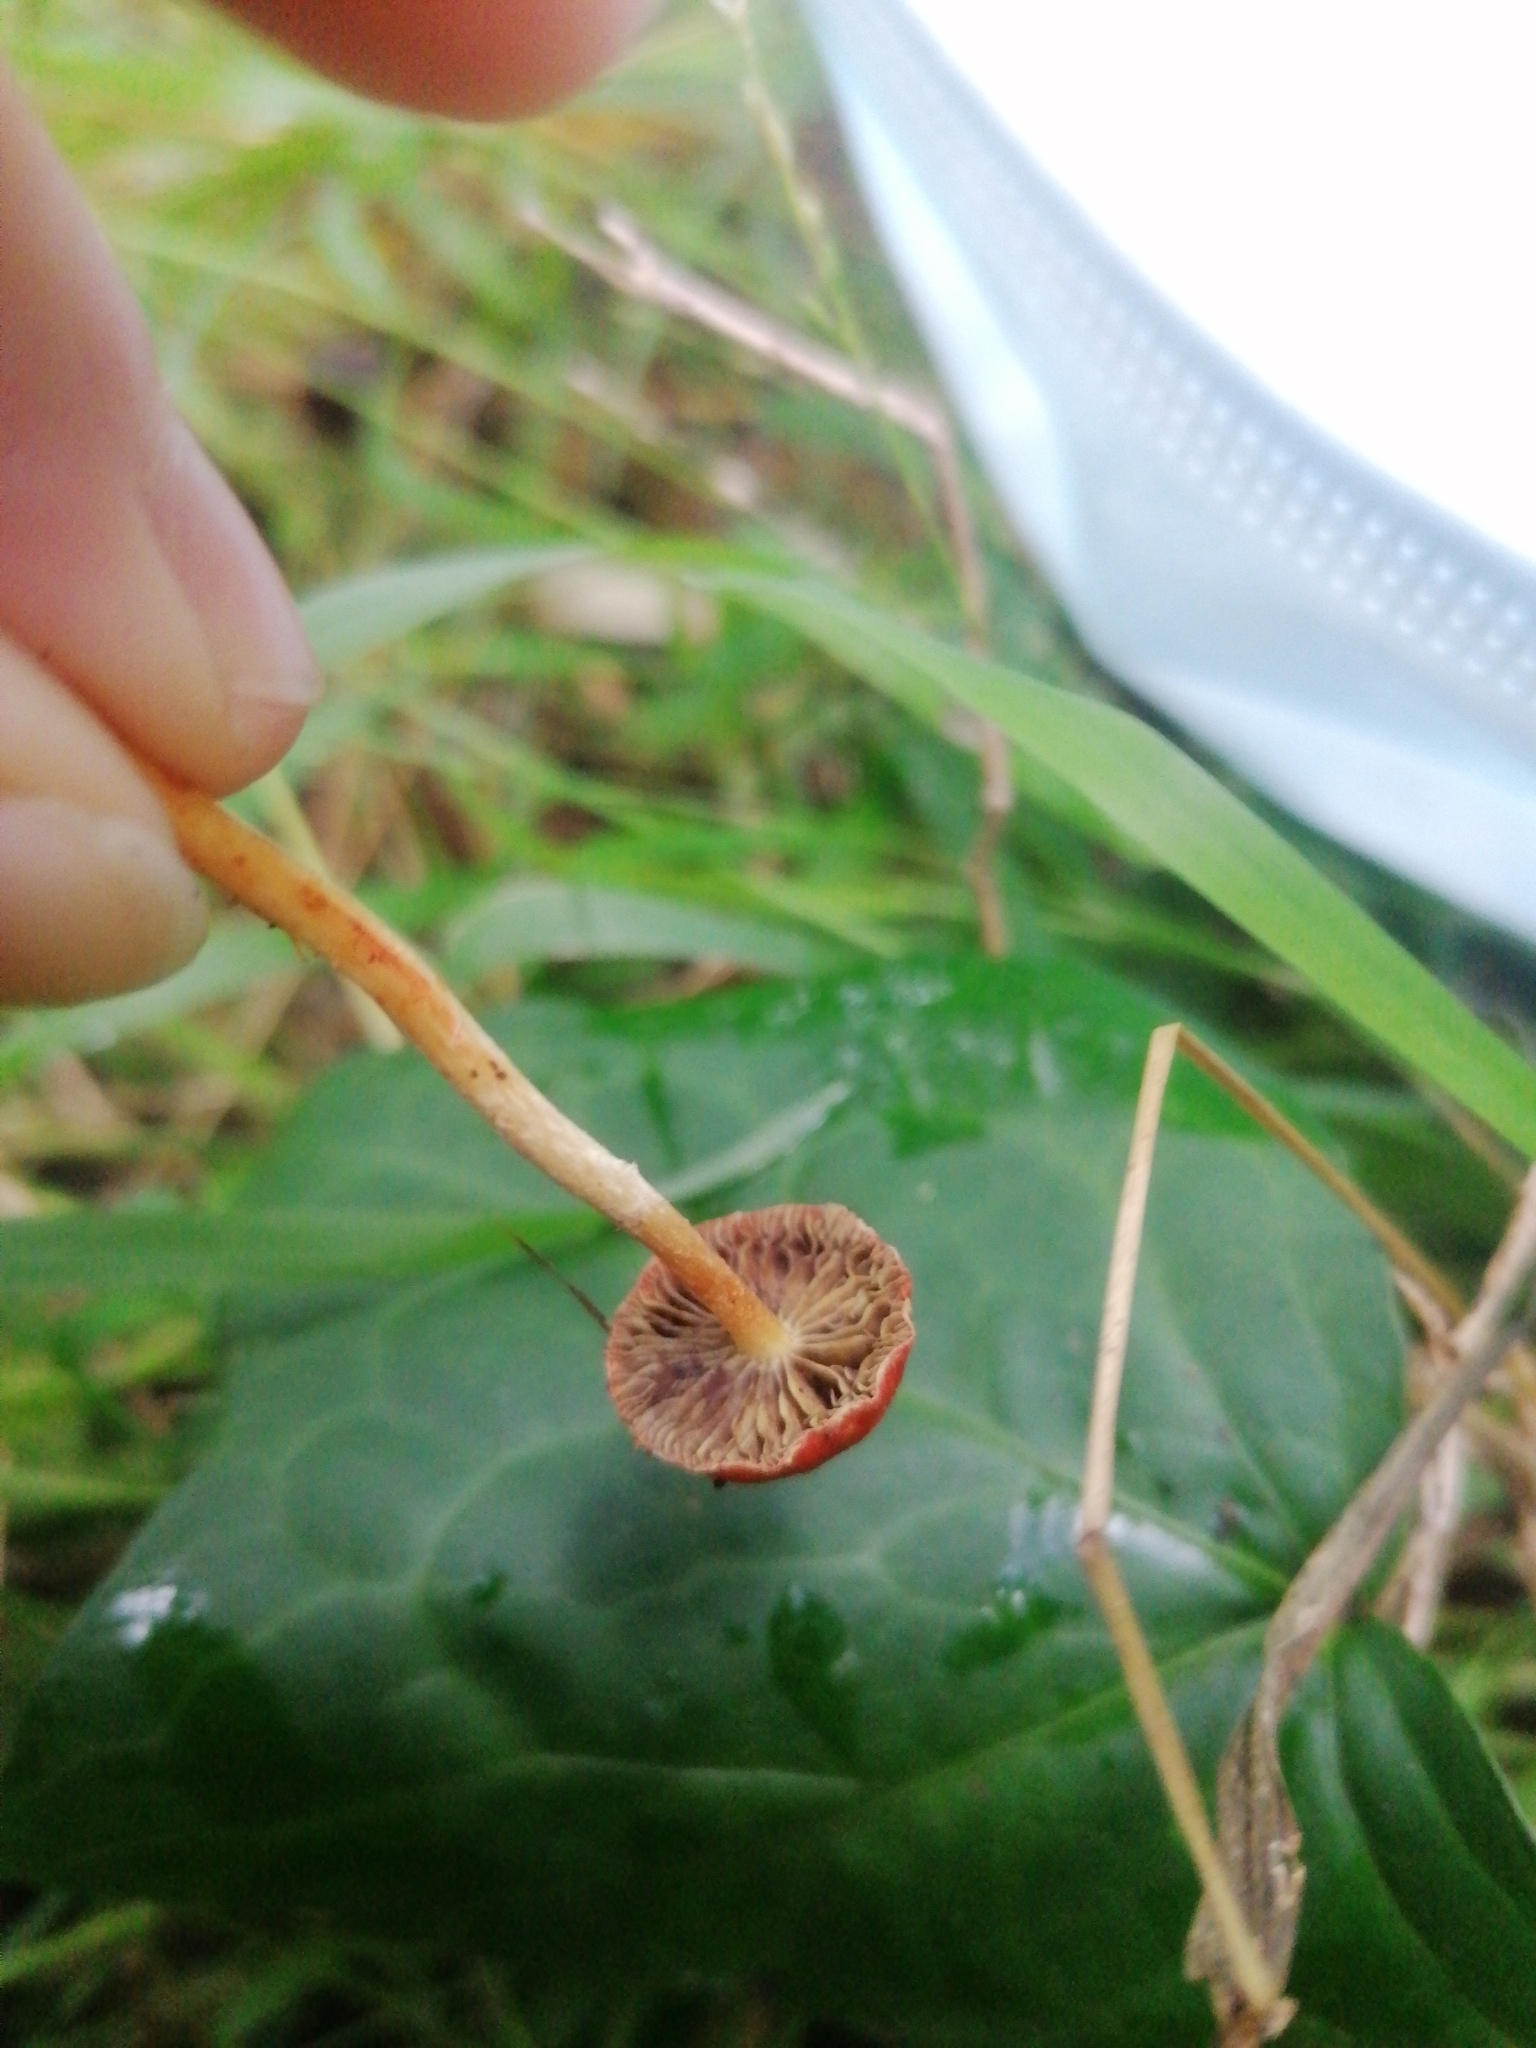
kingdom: Fungi
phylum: Basidiomycota
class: Agaricomycetes
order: Agaricales
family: Strophariaceae
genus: Leratiomyces
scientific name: Leratiomyces ceres
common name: Redlead roundhead
